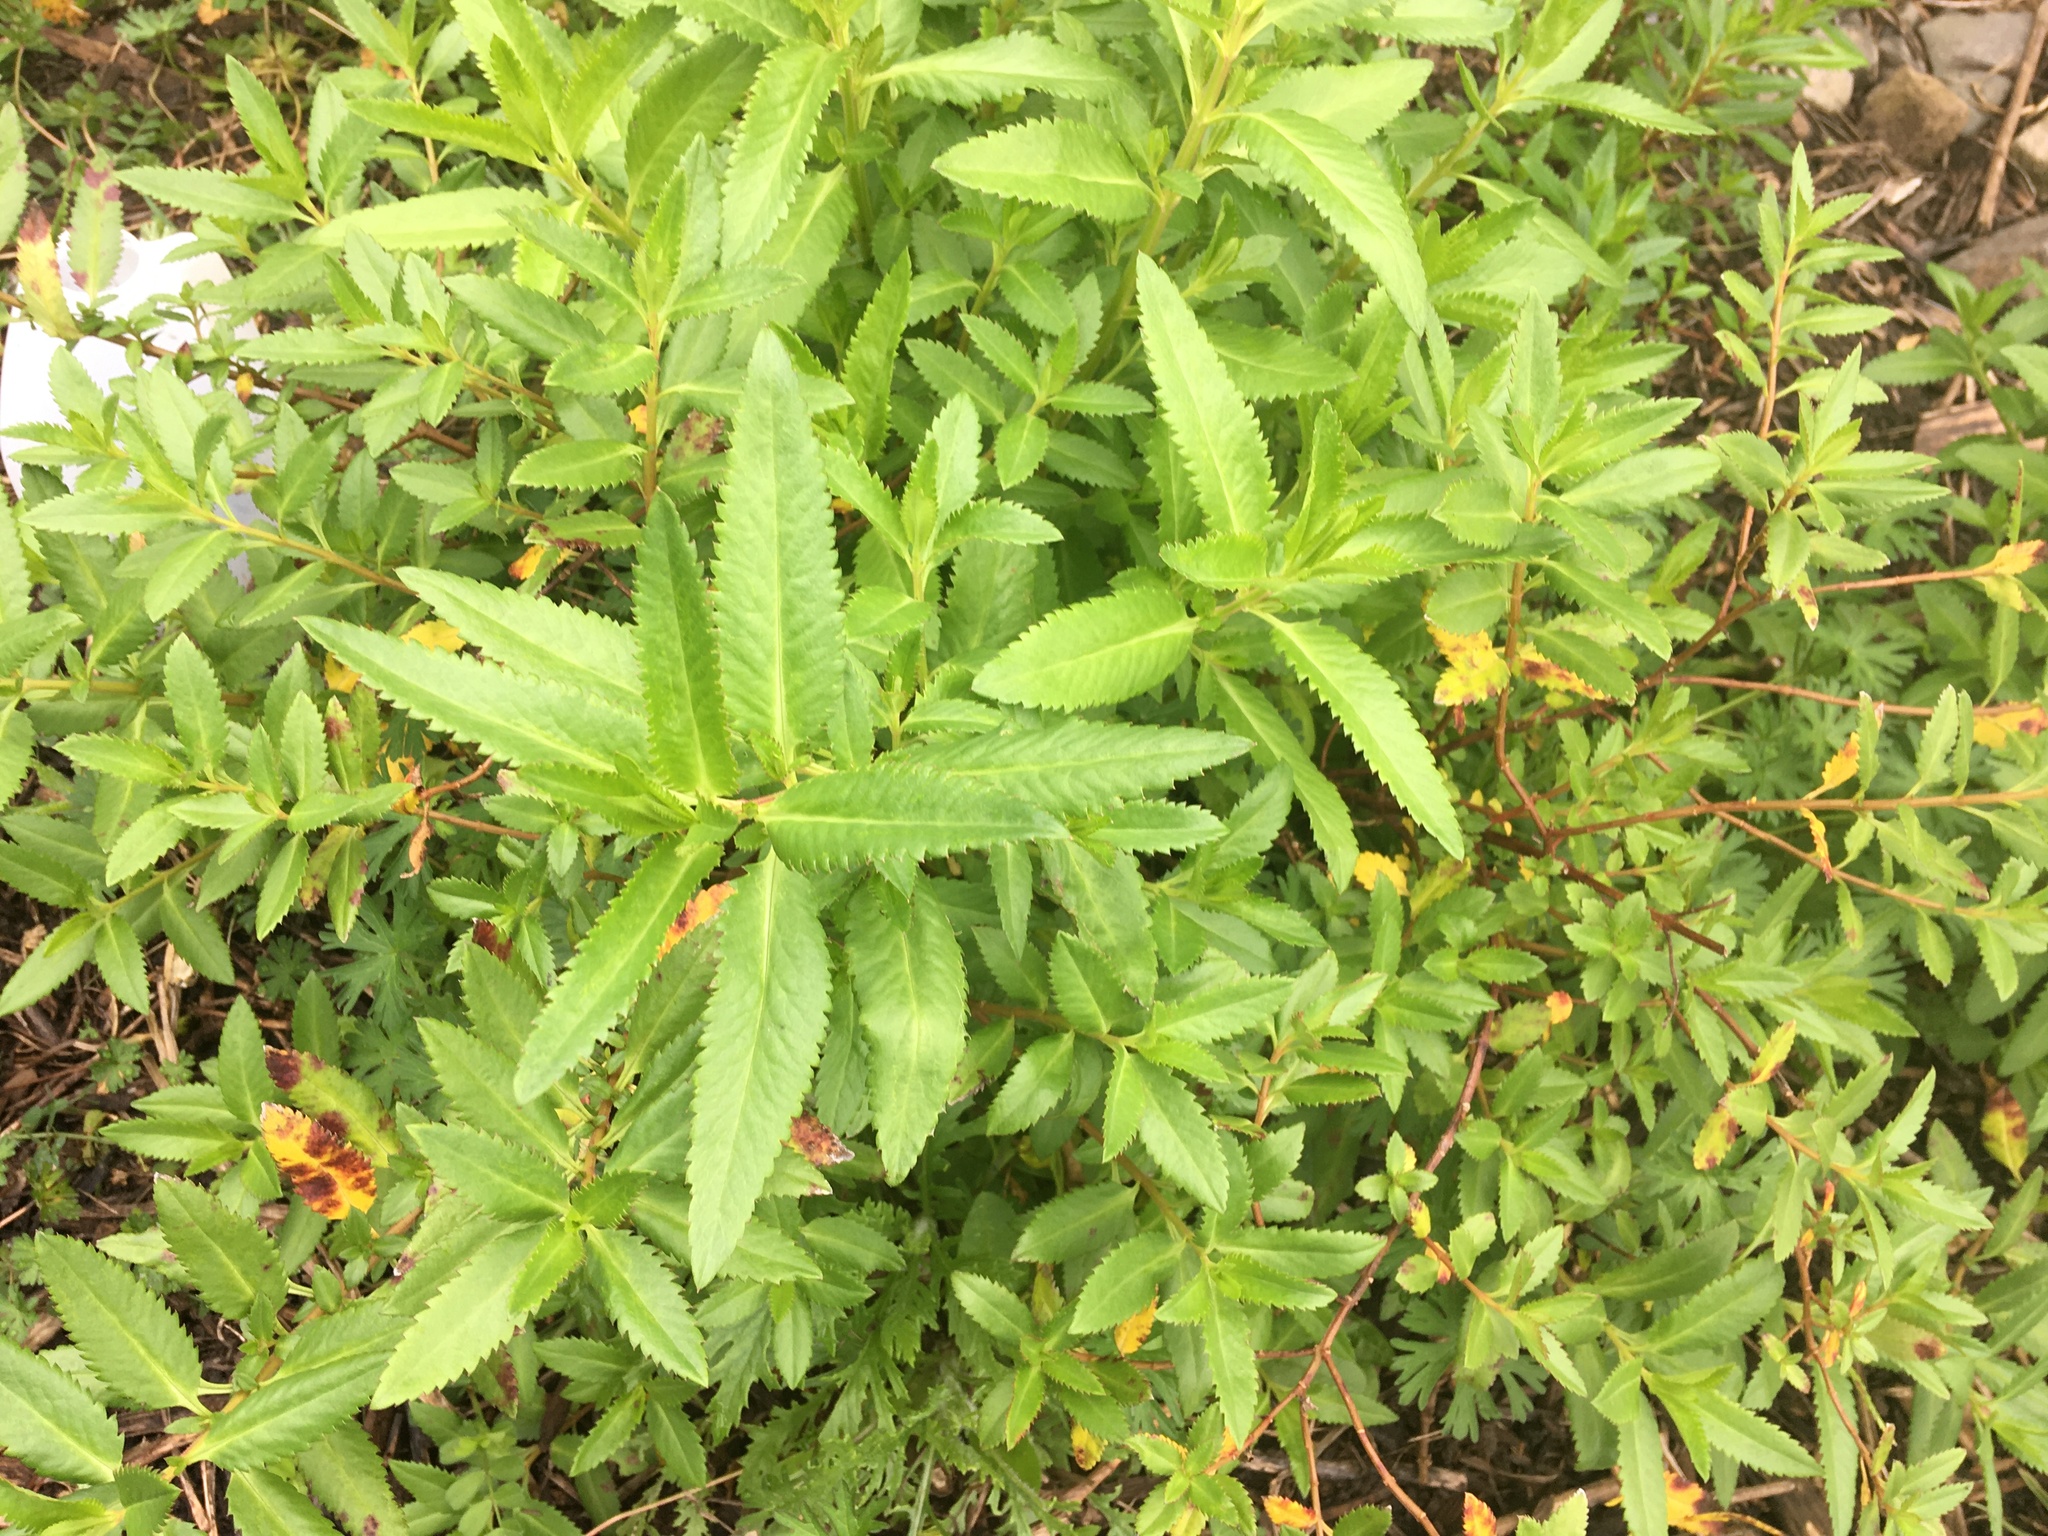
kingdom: Plantae
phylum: Tracheophyta
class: Magnoliopsida
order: Saxifragales
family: Haloragaceae
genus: Haloragis
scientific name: Haloragis erecta
